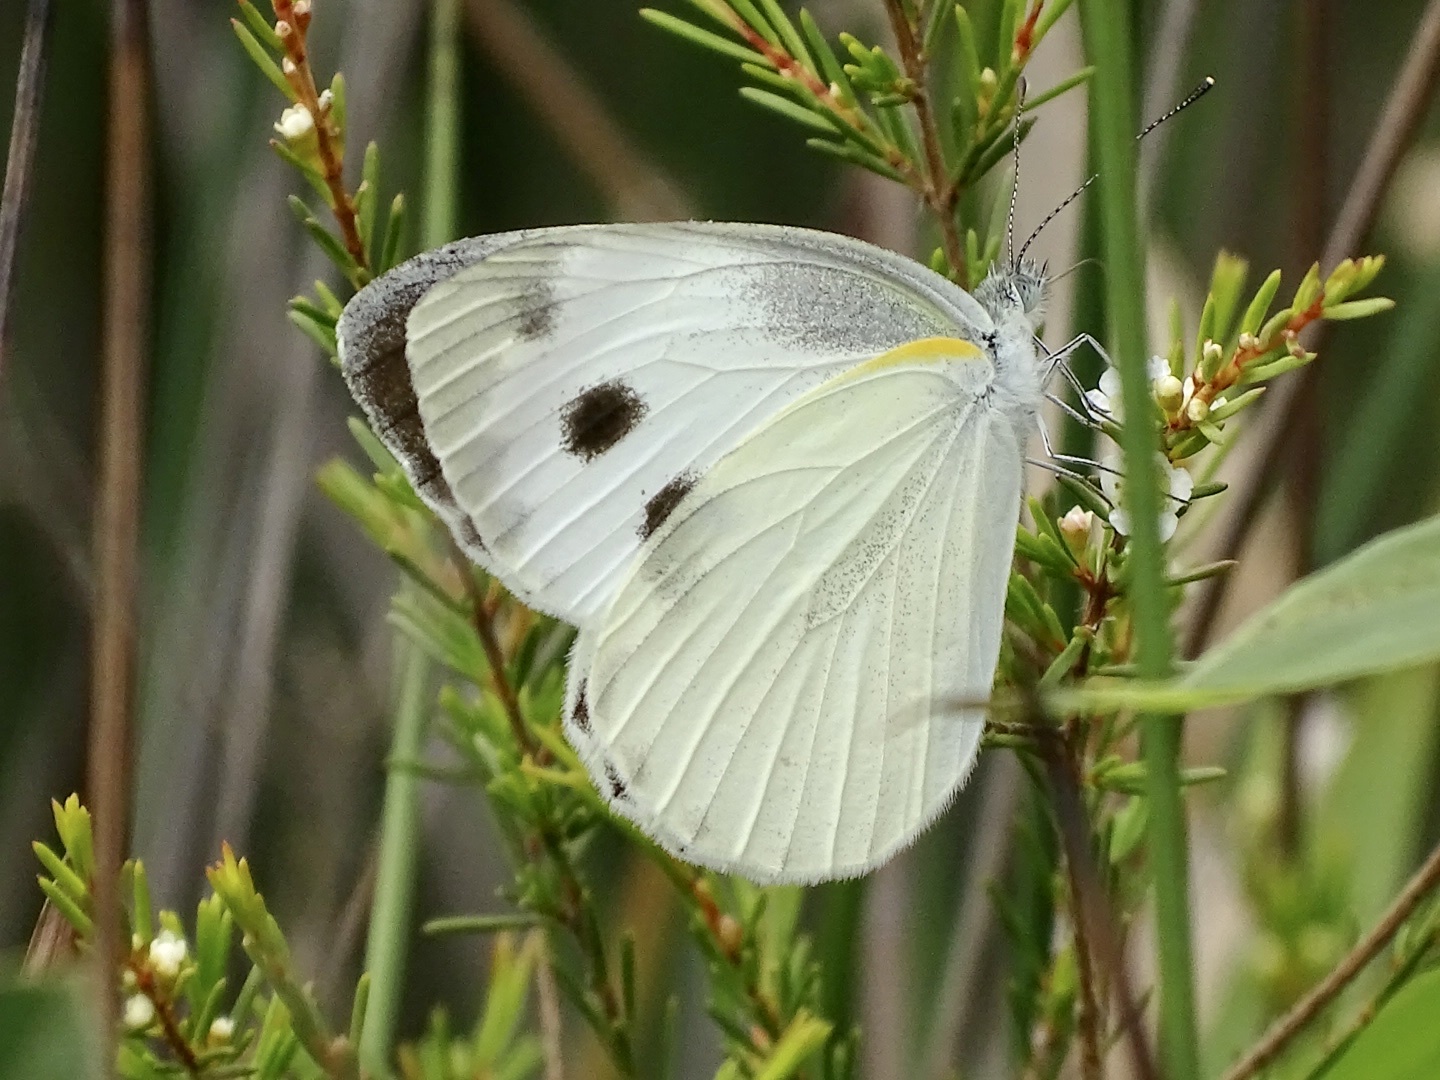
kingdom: Animalia
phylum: Arthropoda
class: Insecta
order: Lepidoptera
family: Pieridae
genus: Pieris
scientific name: Pieris canidia
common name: Indian cabbage white
